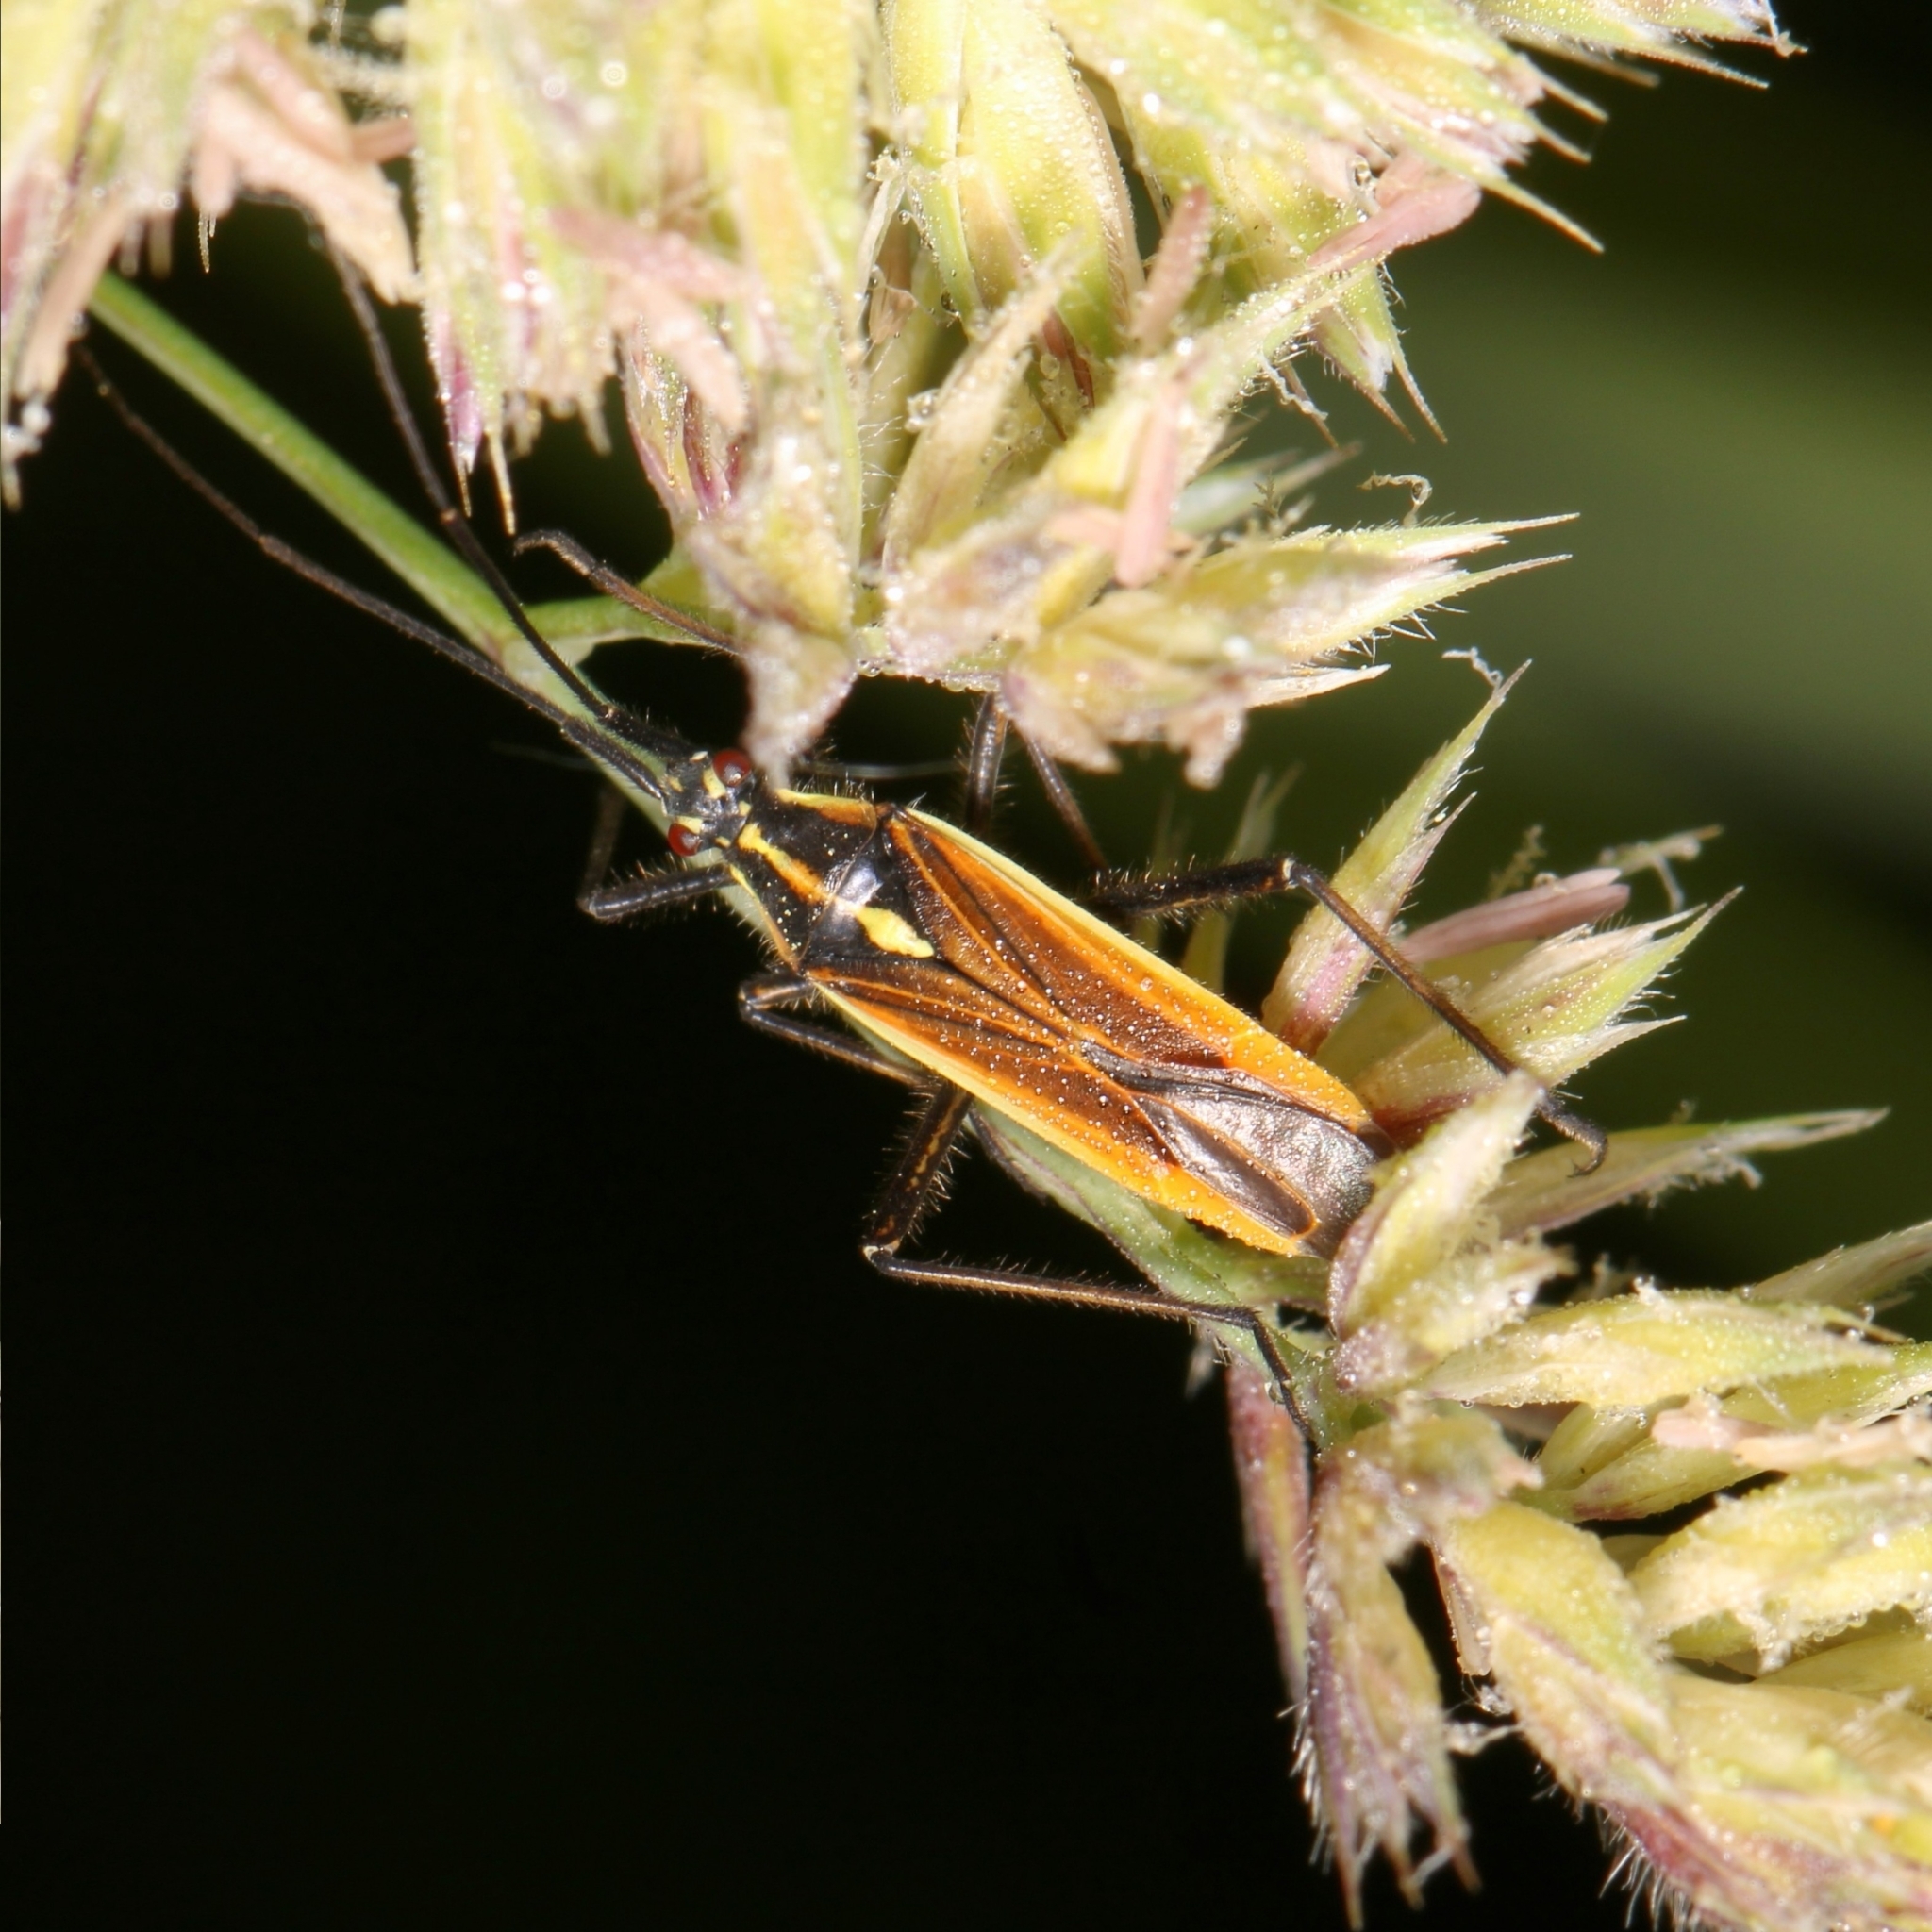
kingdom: Animalia
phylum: Arthropoda
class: Insecta
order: Hemiptera
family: Miridae
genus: Leptopterna
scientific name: Leptopterna dolabrata
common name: Meadow plant bug
